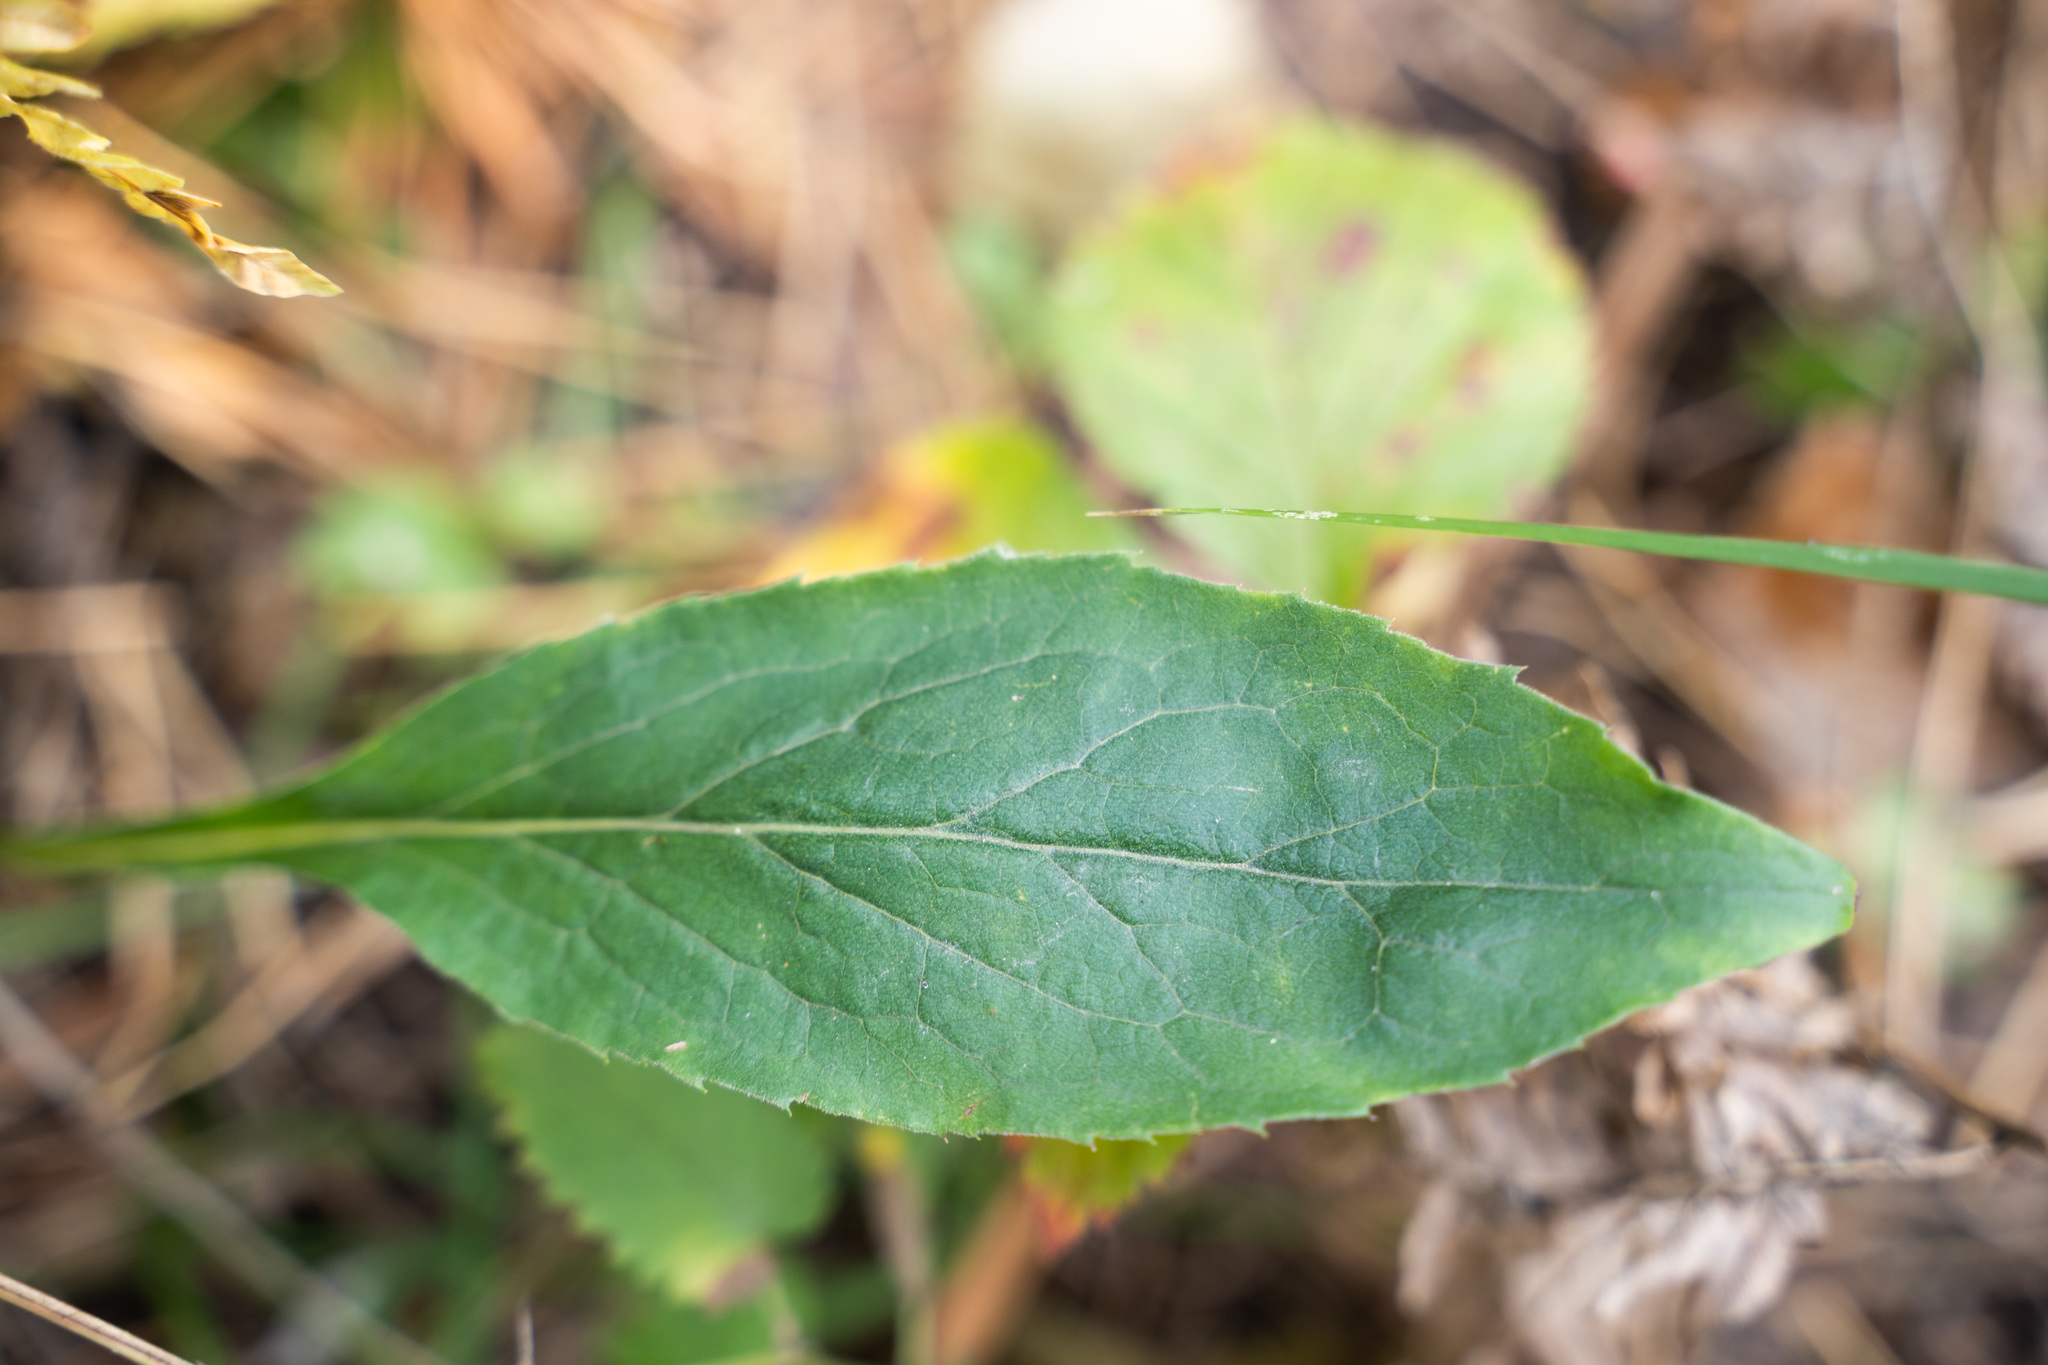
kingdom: Plantae
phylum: Tracheophyta
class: Magnoliopsida
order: Asterales
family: Asteraceae
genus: Solidago
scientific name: Solidago virgaurea
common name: Goldenrod
